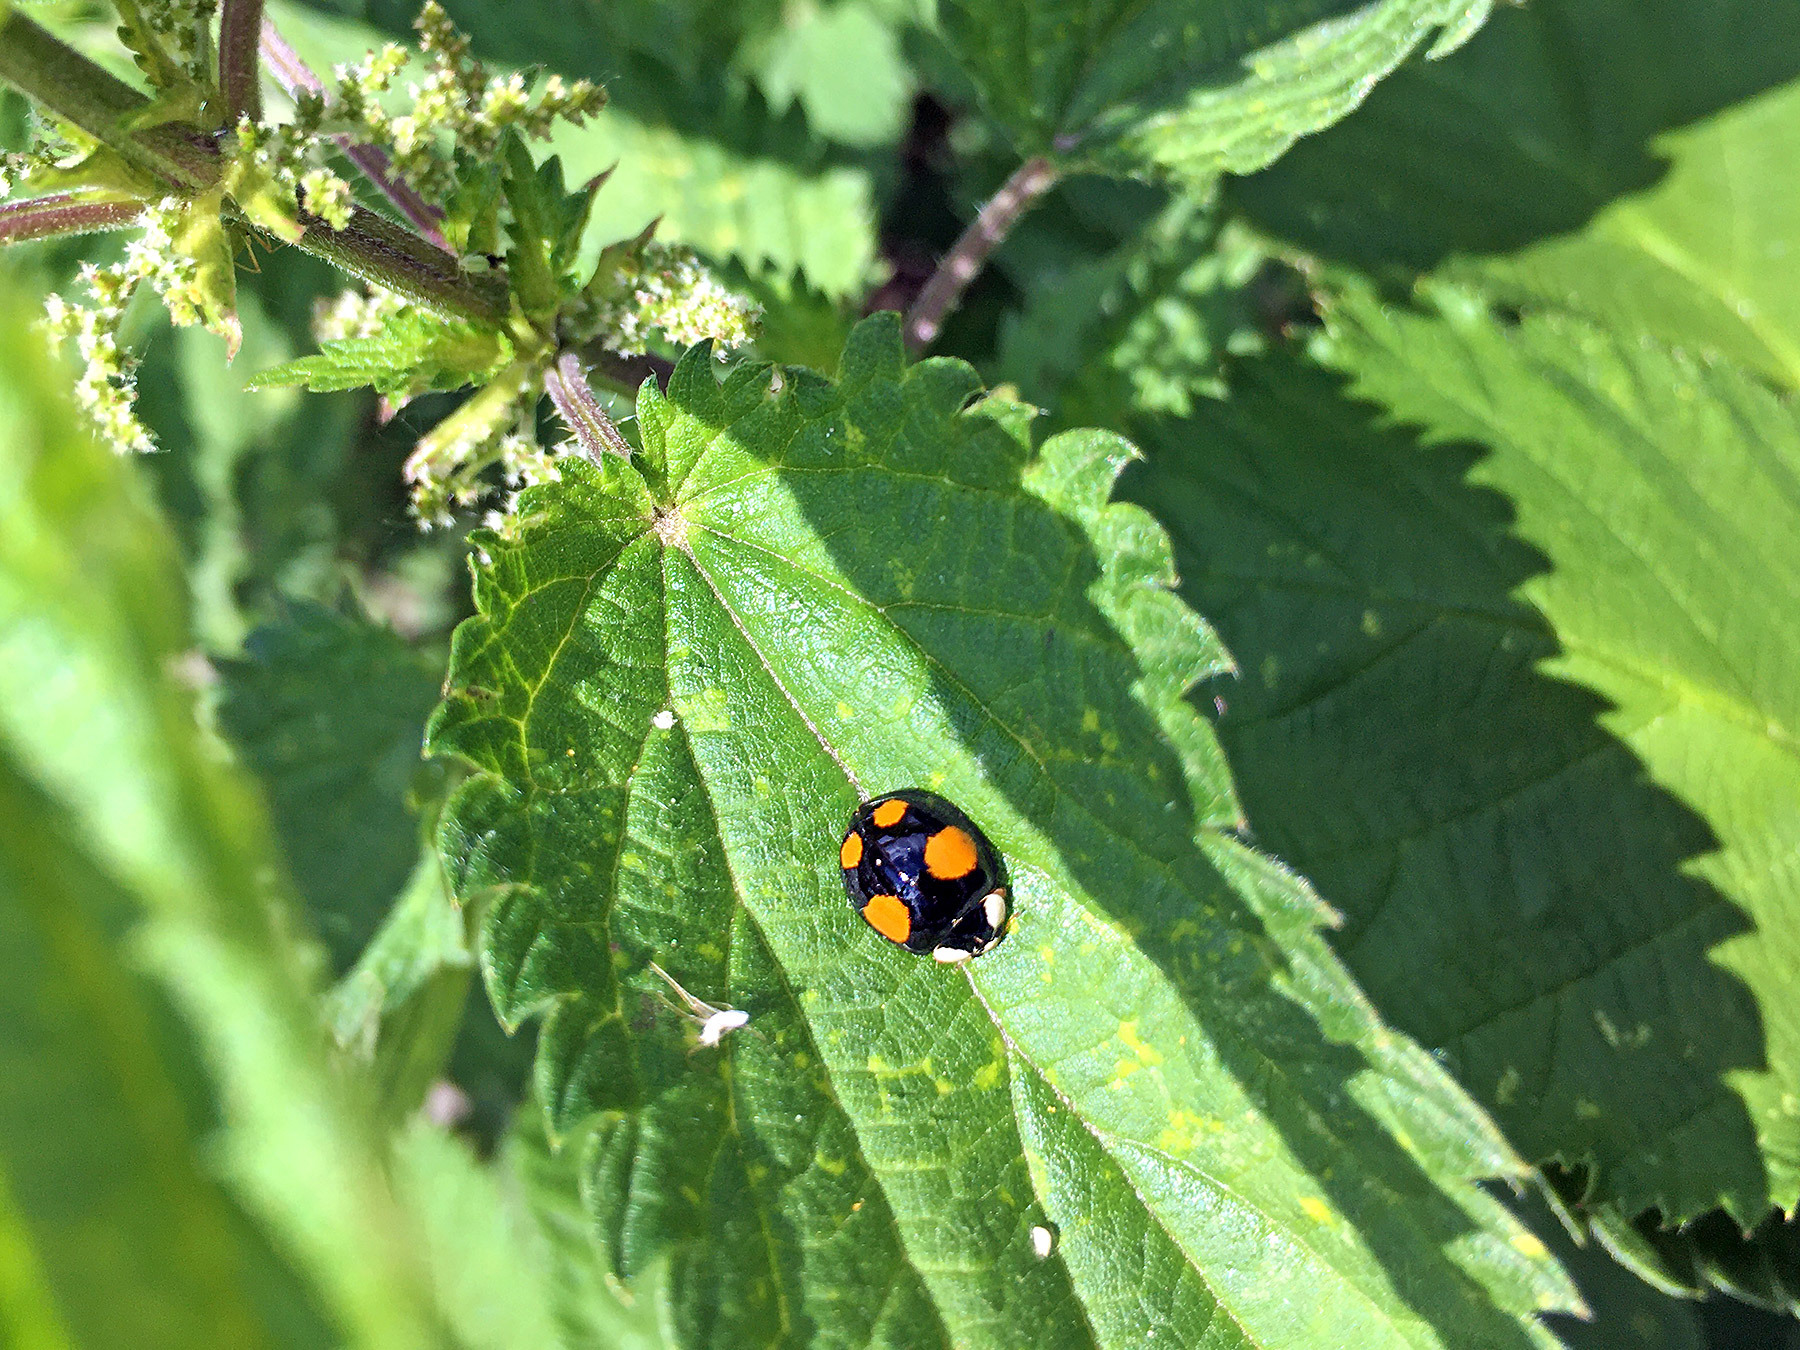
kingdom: Animalia
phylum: Arthropoda
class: Insecta
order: Coleoptera
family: Coccinellidae
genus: Harmonia
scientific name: Harmonia axyridis
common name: Harlequin ladybird
